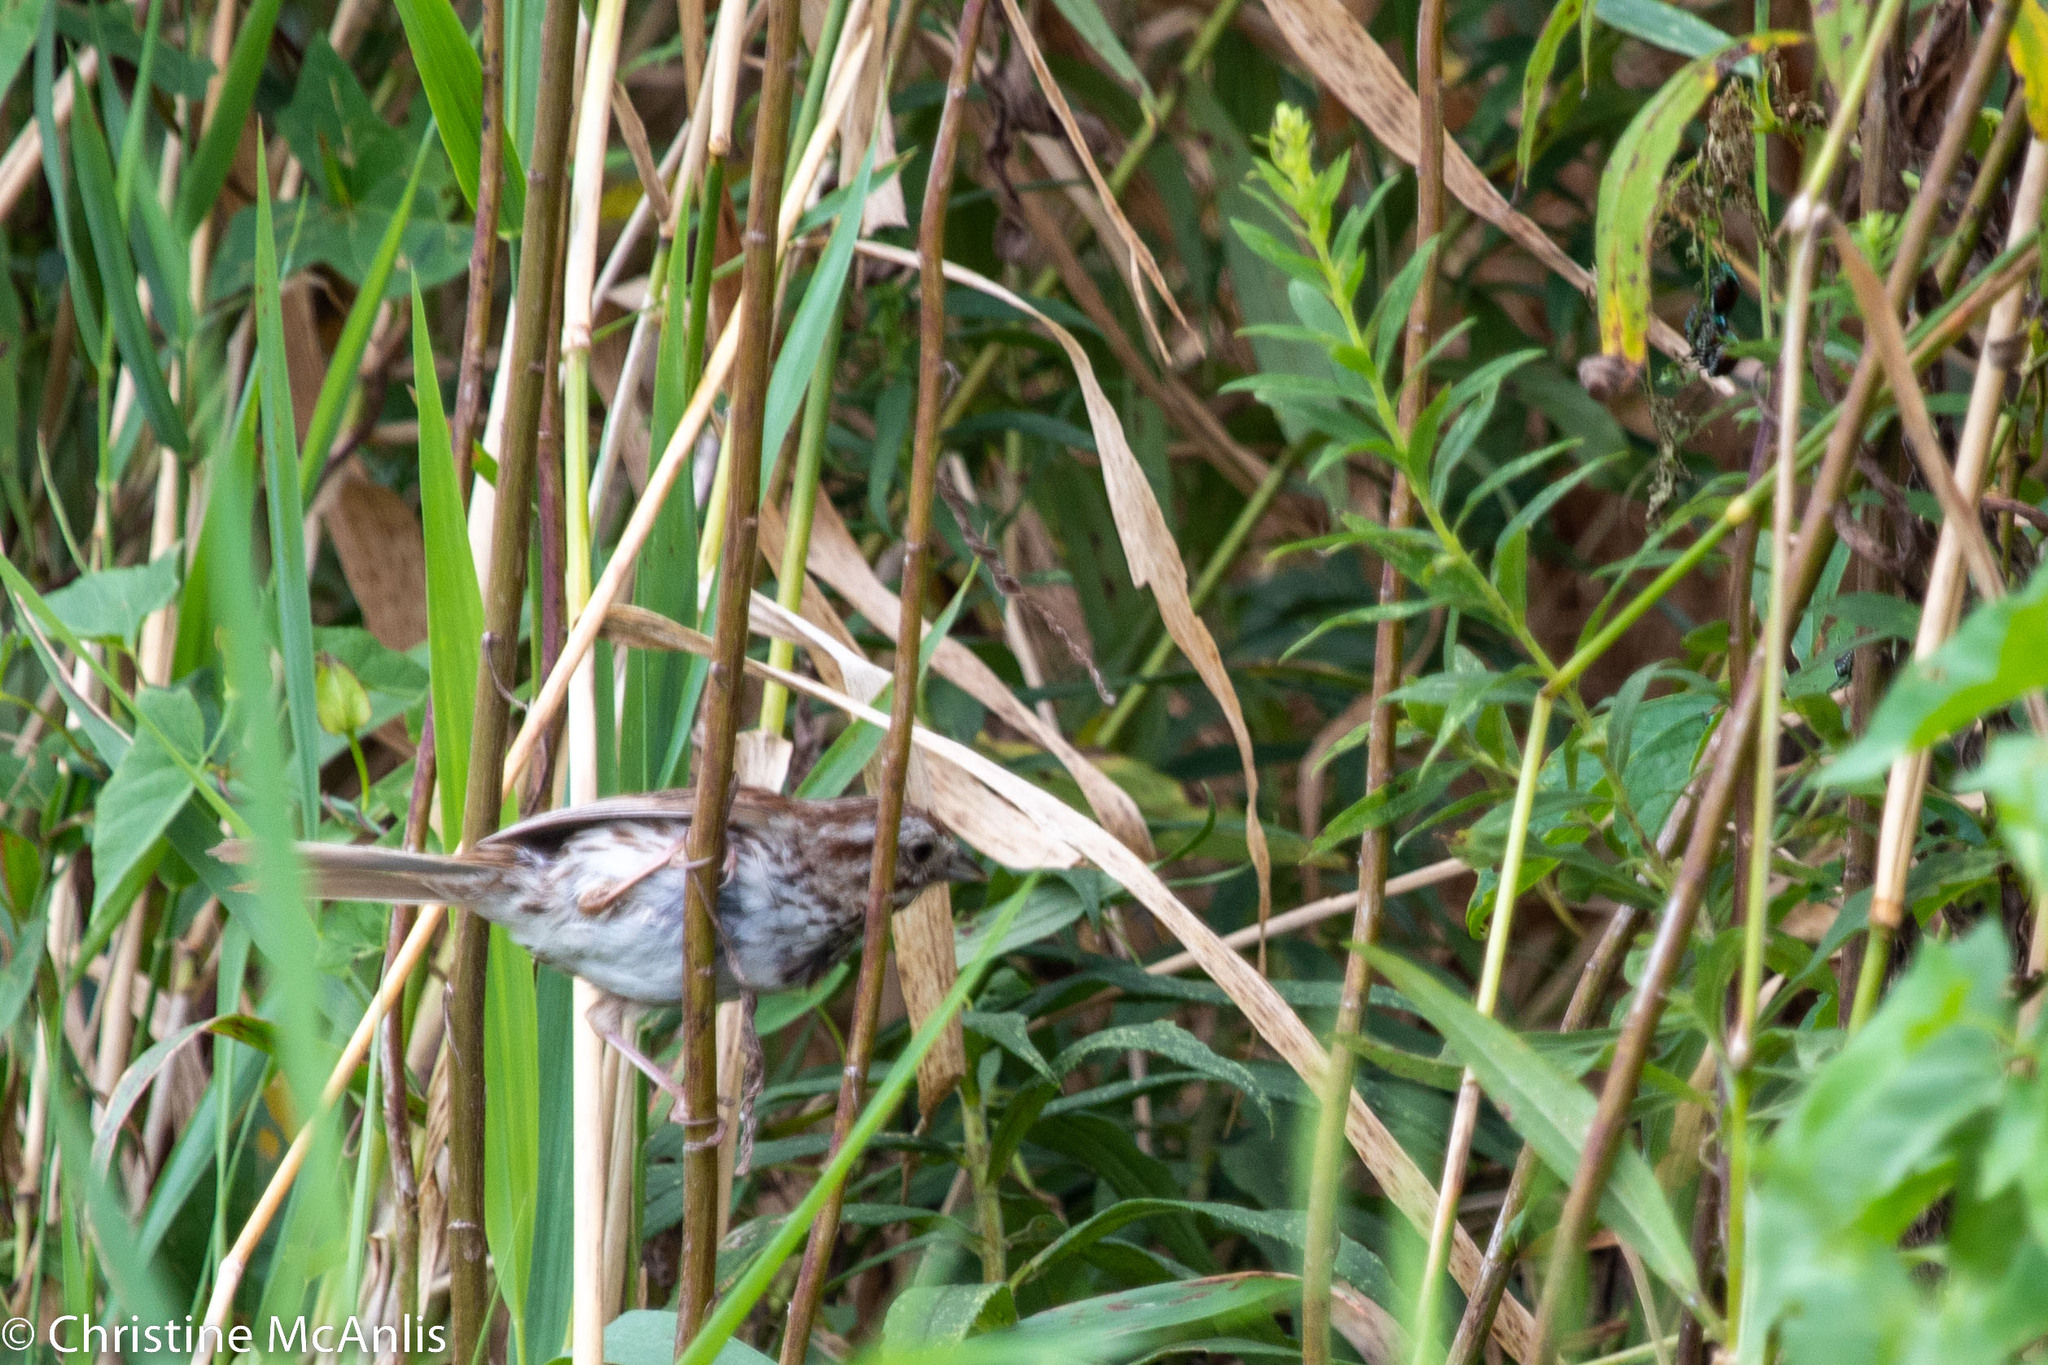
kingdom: Animalia
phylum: Chordata
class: Aves
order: Passeriformes
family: Passerellidae
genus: Melospiza
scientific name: Melospiza melodia
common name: Song sparrow
